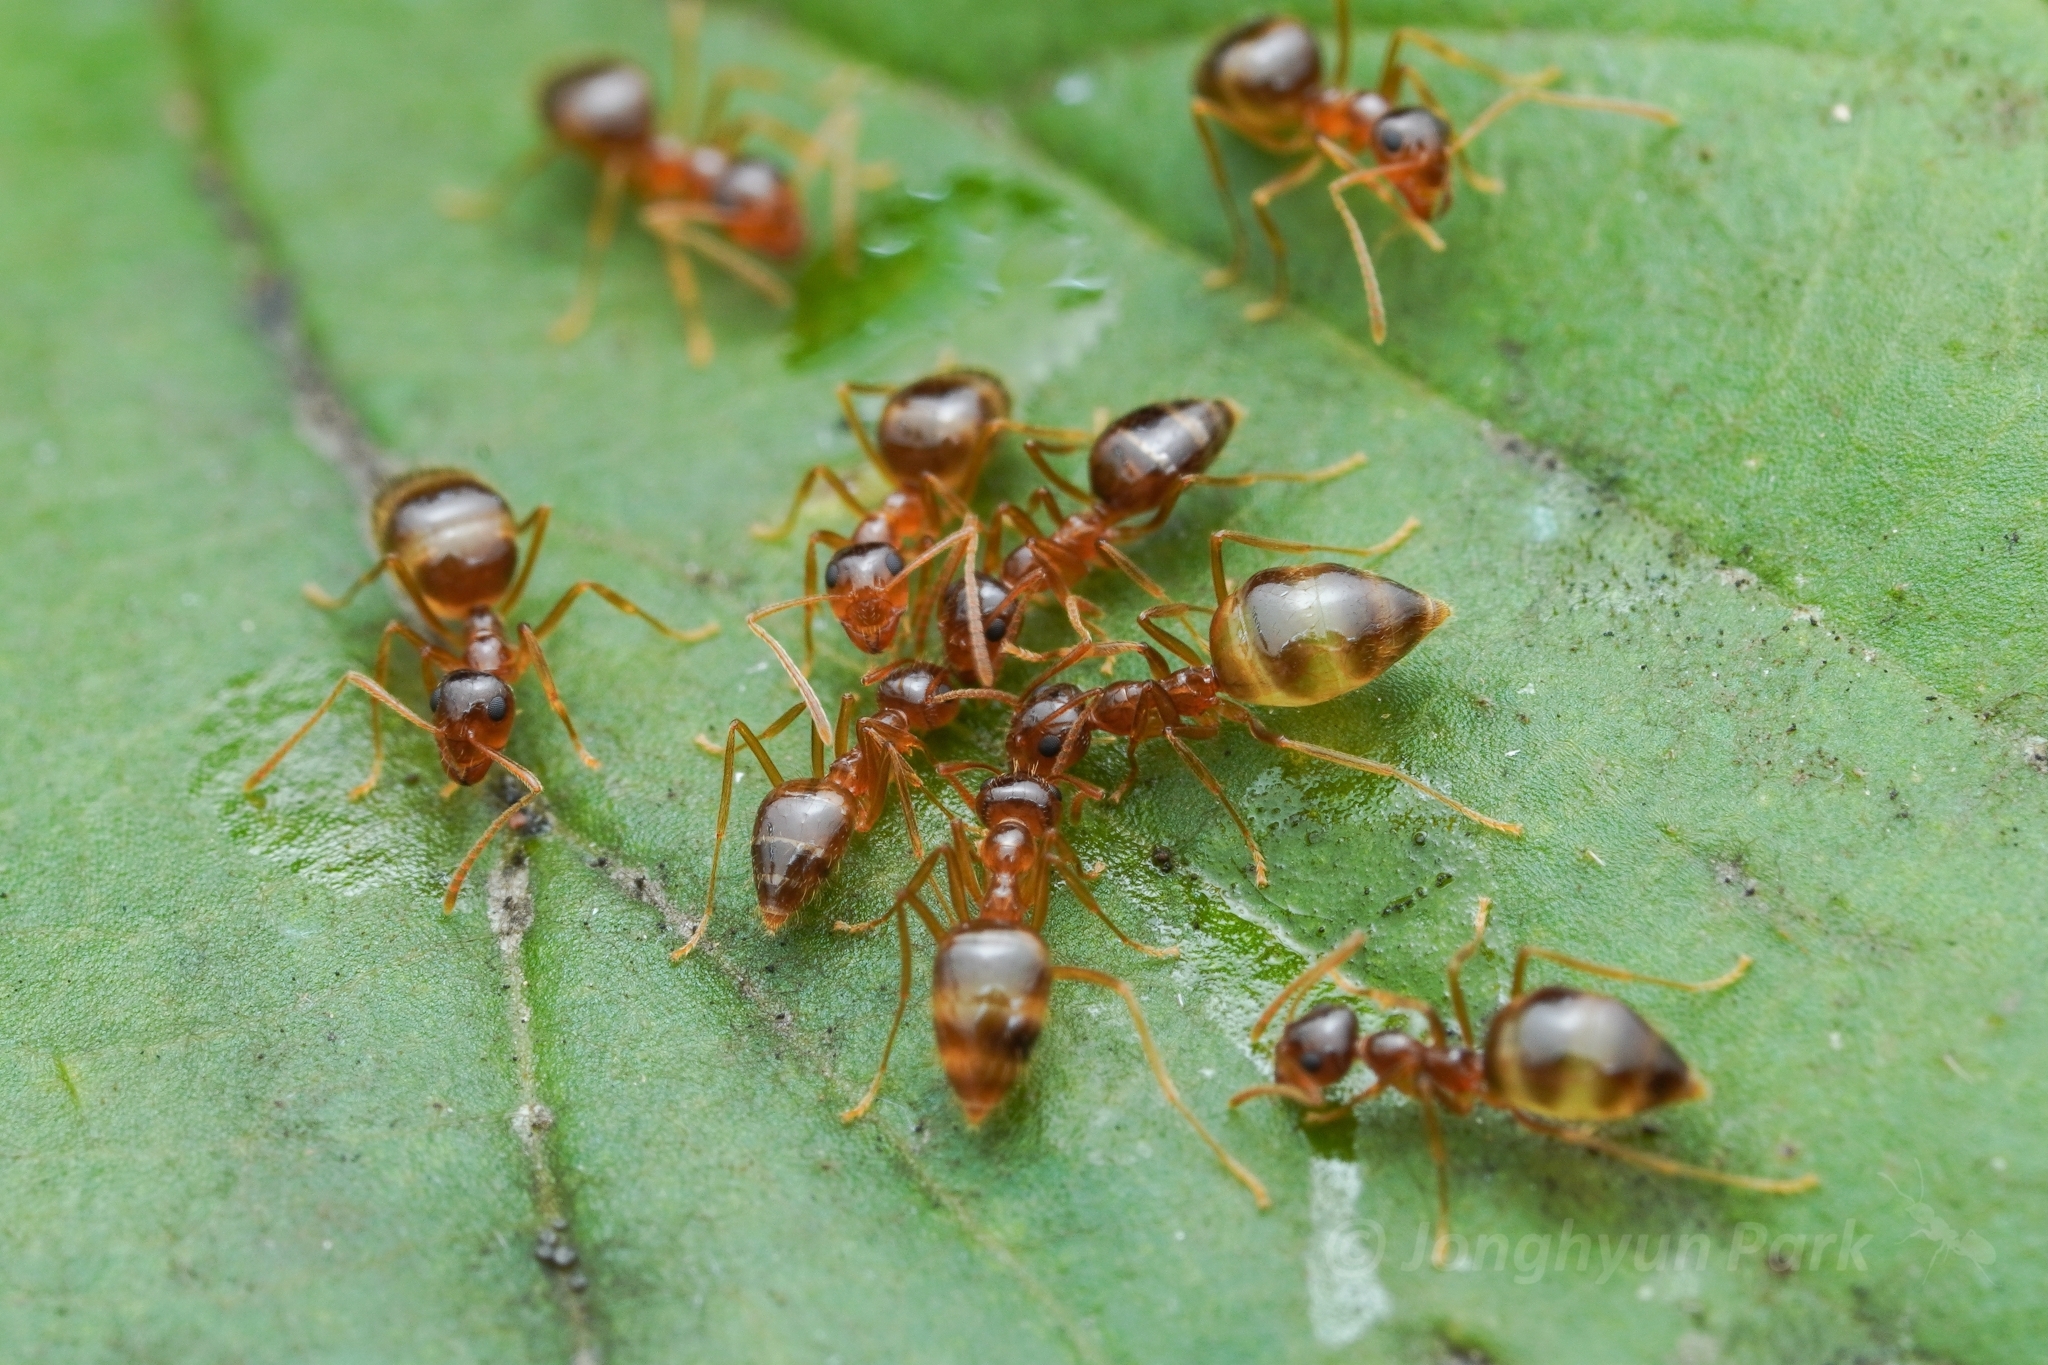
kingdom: Animalia
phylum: Arthropoda
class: Insecta
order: Hymenoptera
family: Formicidae
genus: Prenolepis
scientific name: Prenolepis imparis
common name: Small honey ant
